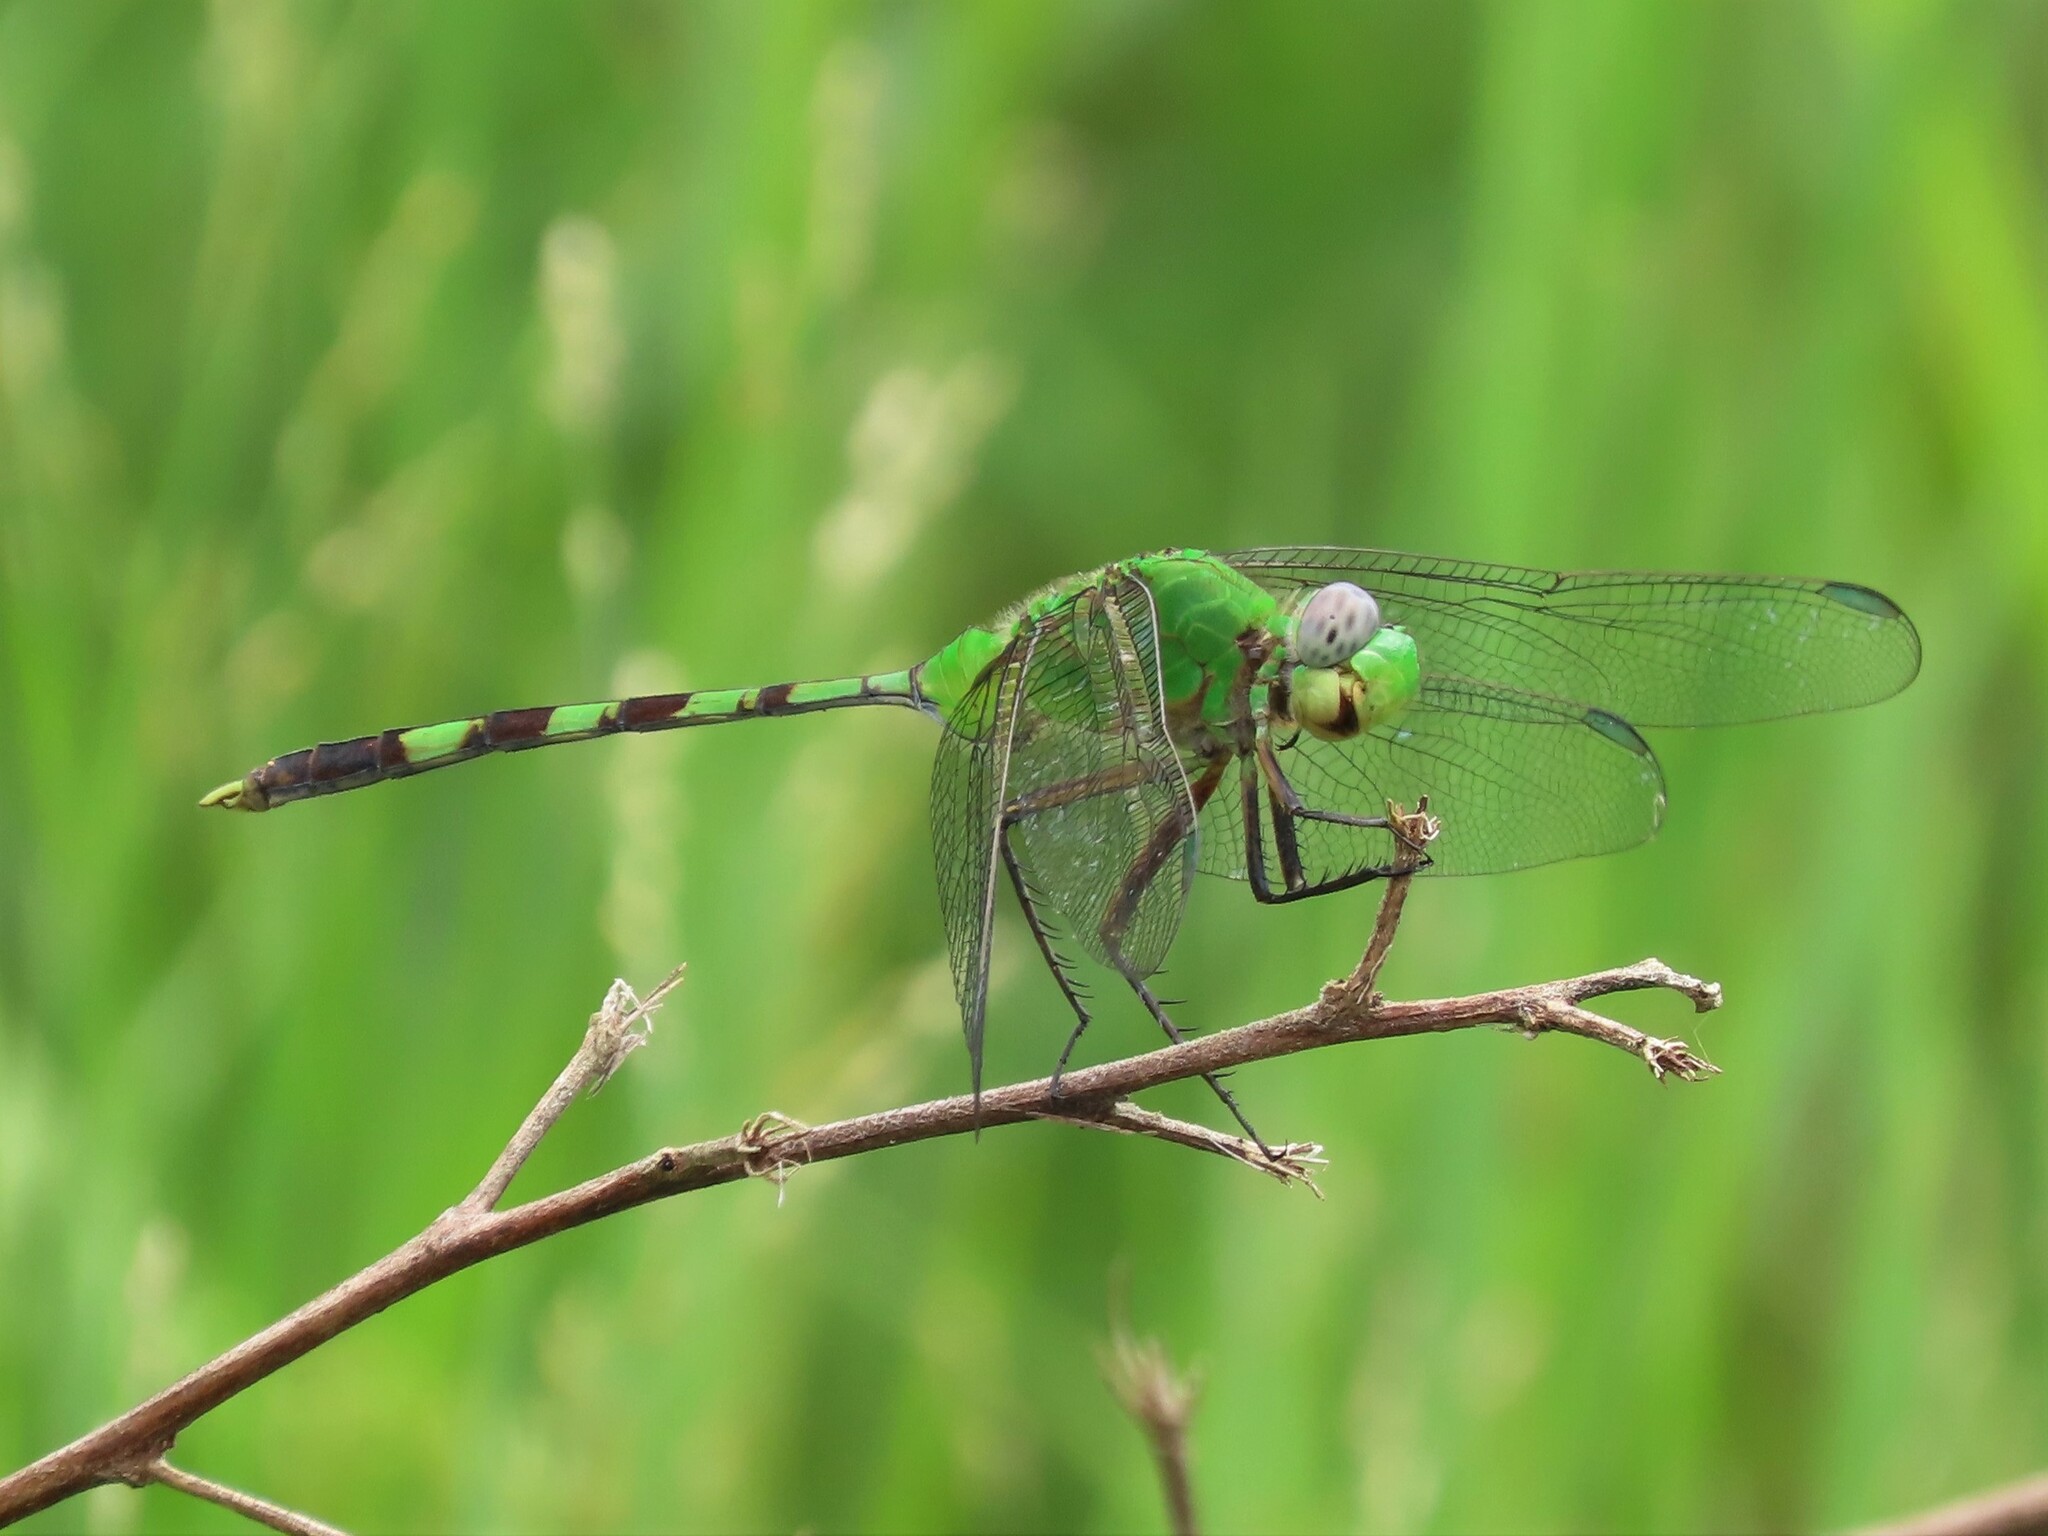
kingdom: Animalia
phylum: Arthropoda
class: Insecta
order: Odonata
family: Libellulidae
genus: Erythemis
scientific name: Erythemis vesiculosa
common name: Great pondhawk
